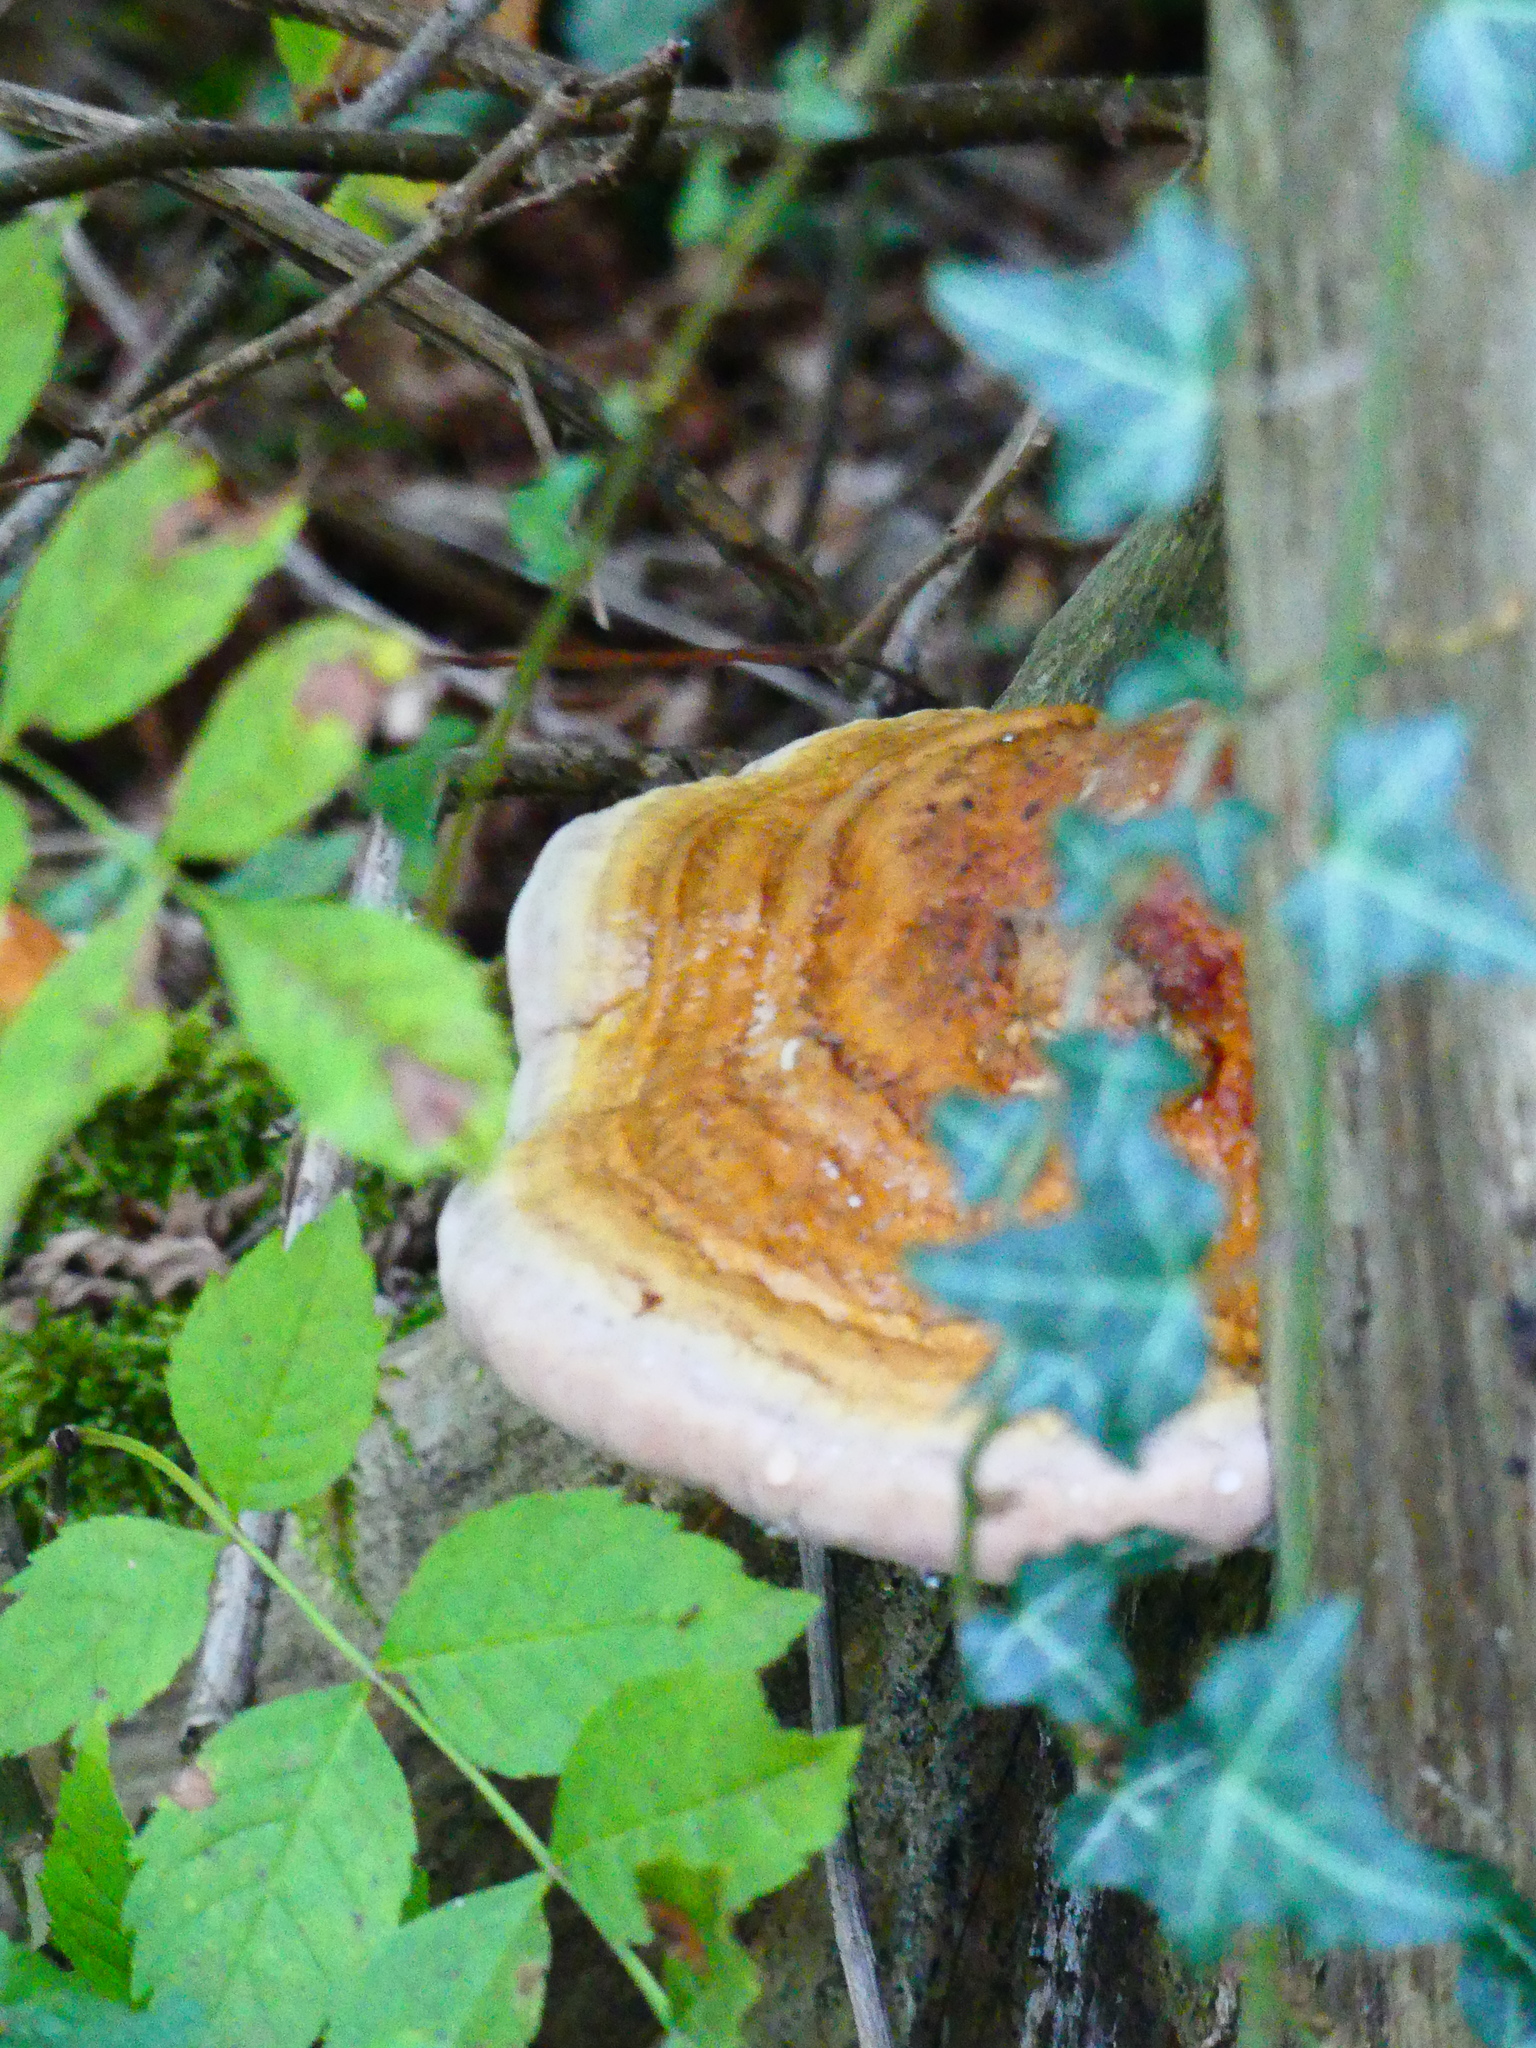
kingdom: Fungi
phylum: Basidiomycota
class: Agaricomycetes
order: Polyporales
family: Fomitopsidaceae
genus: Fomitopsis
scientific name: Fomitopsis pinicola
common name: Red-belted bracket
